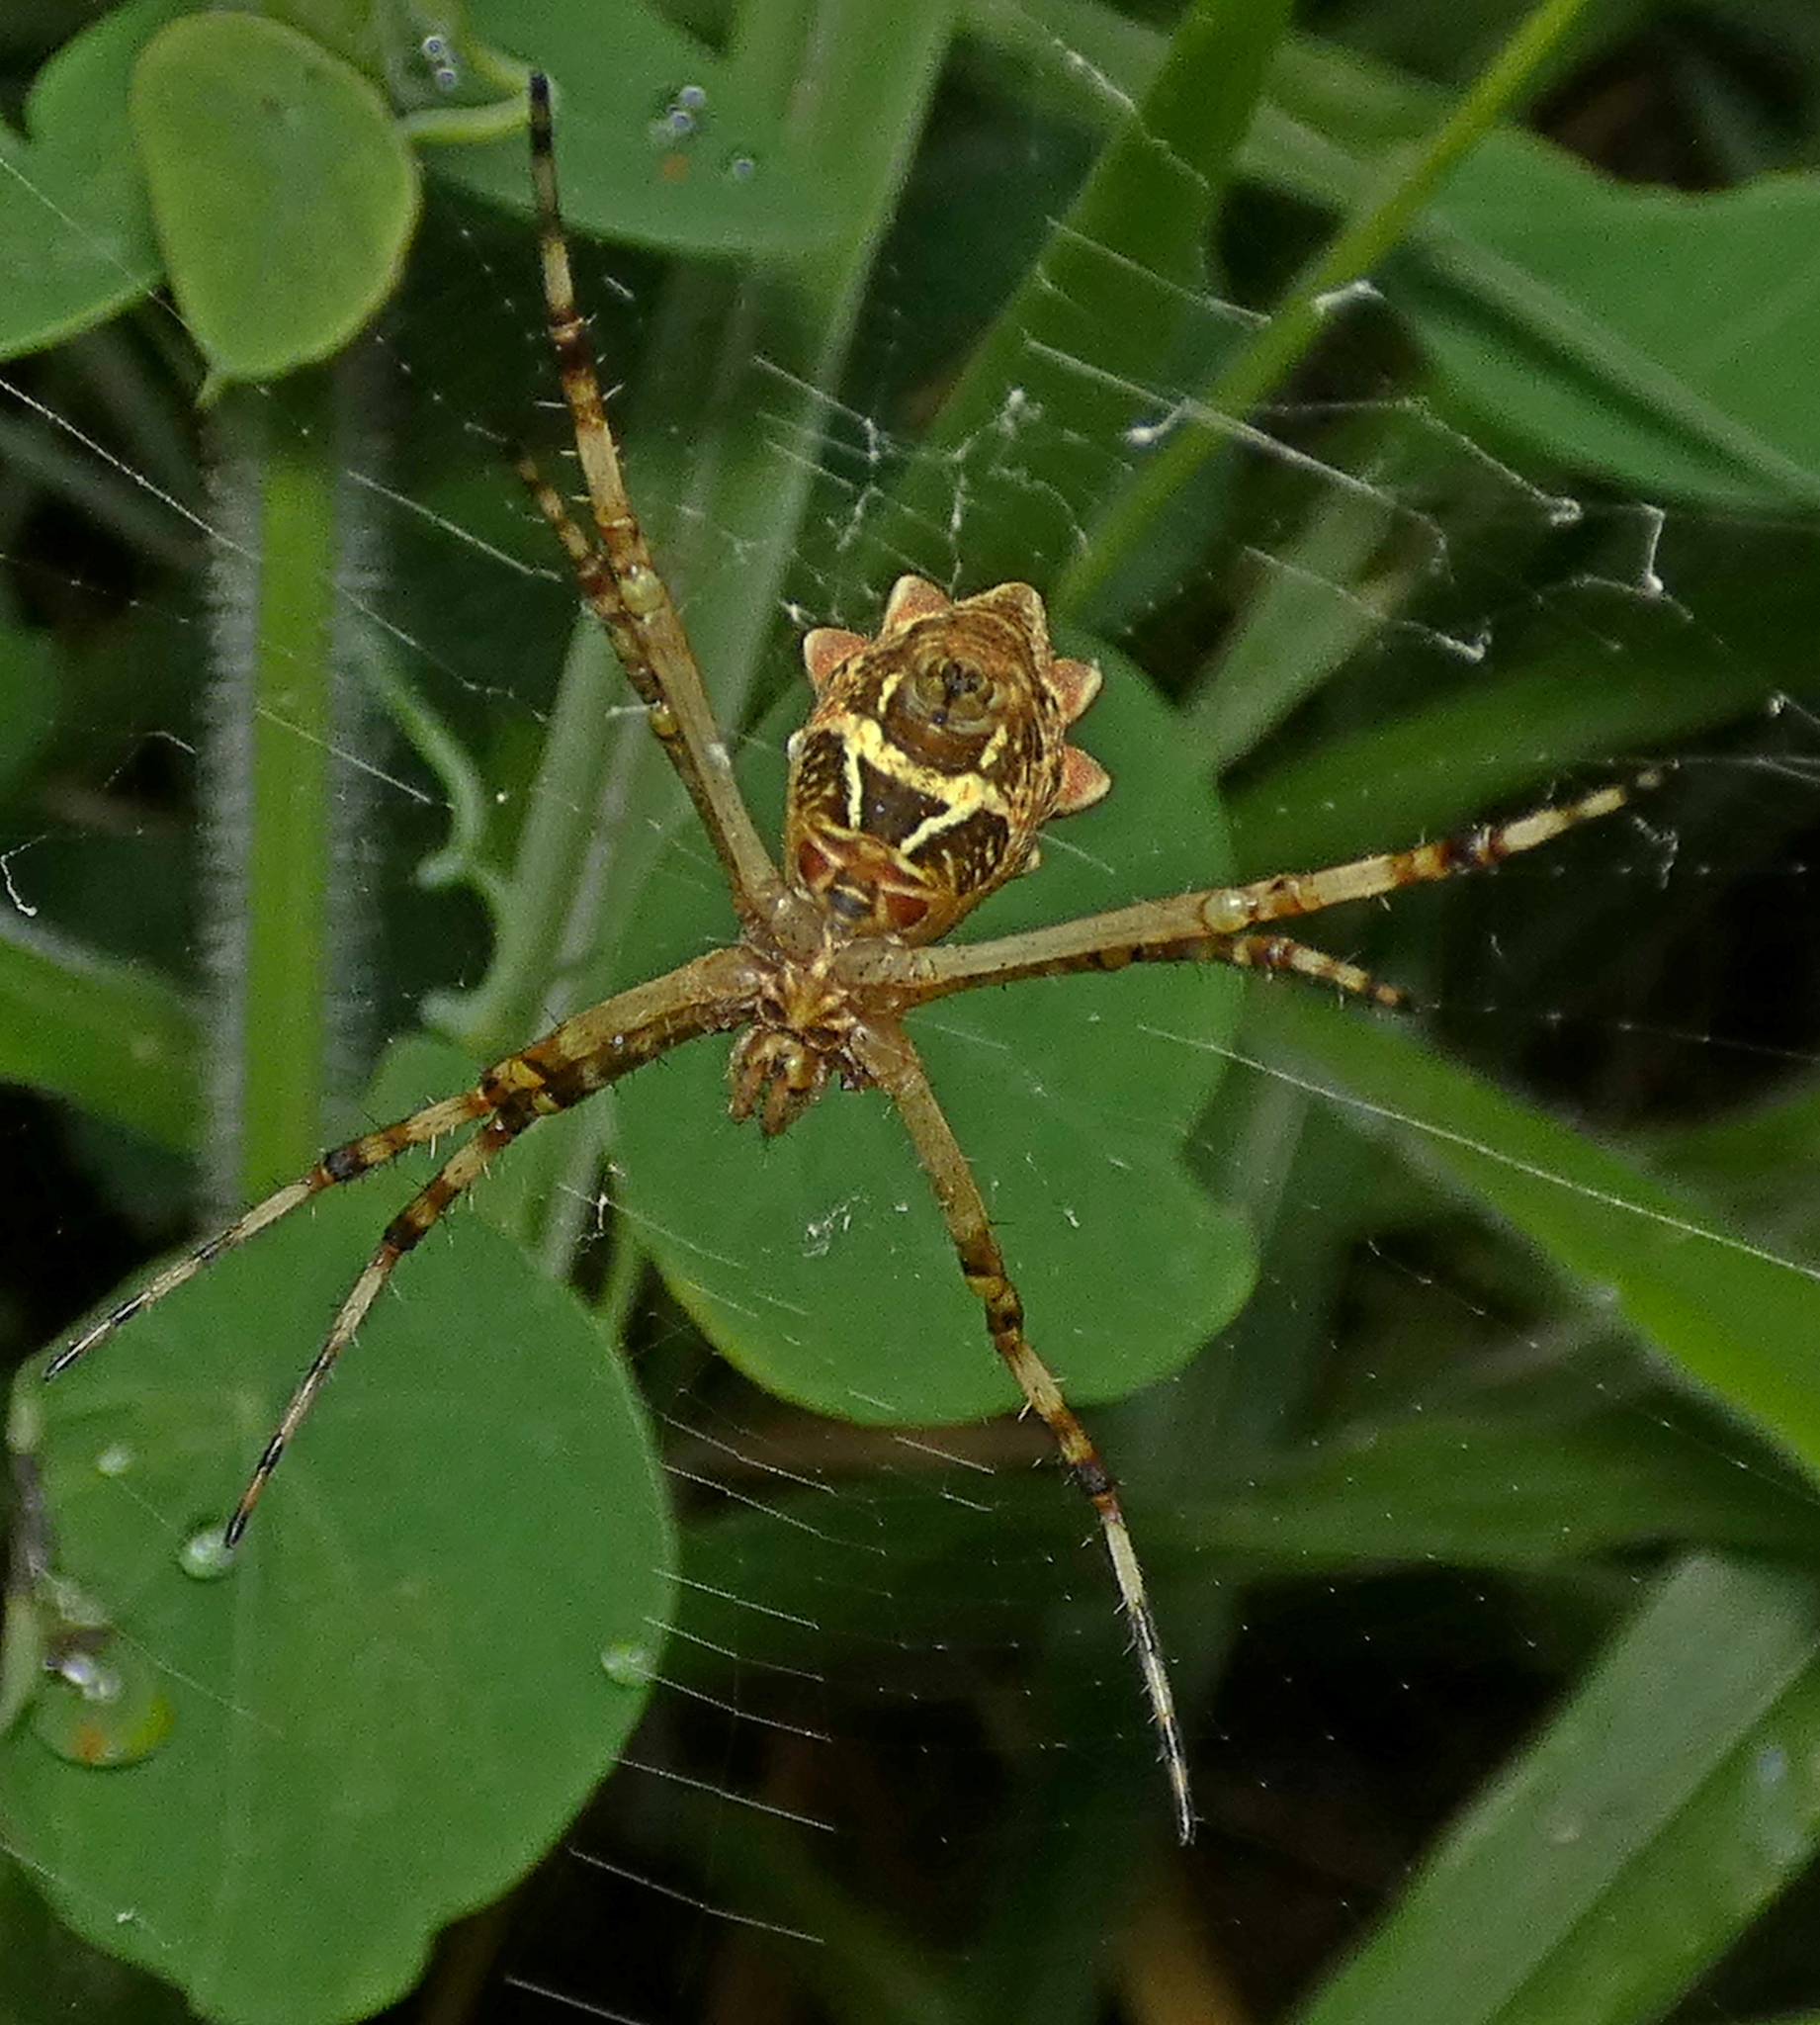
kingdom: Animalia
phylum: Arthropoda
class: Arachnida
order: Araneae
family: Araneidae
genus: Argiope
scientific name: Argiope argentata
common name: Orb weavers
